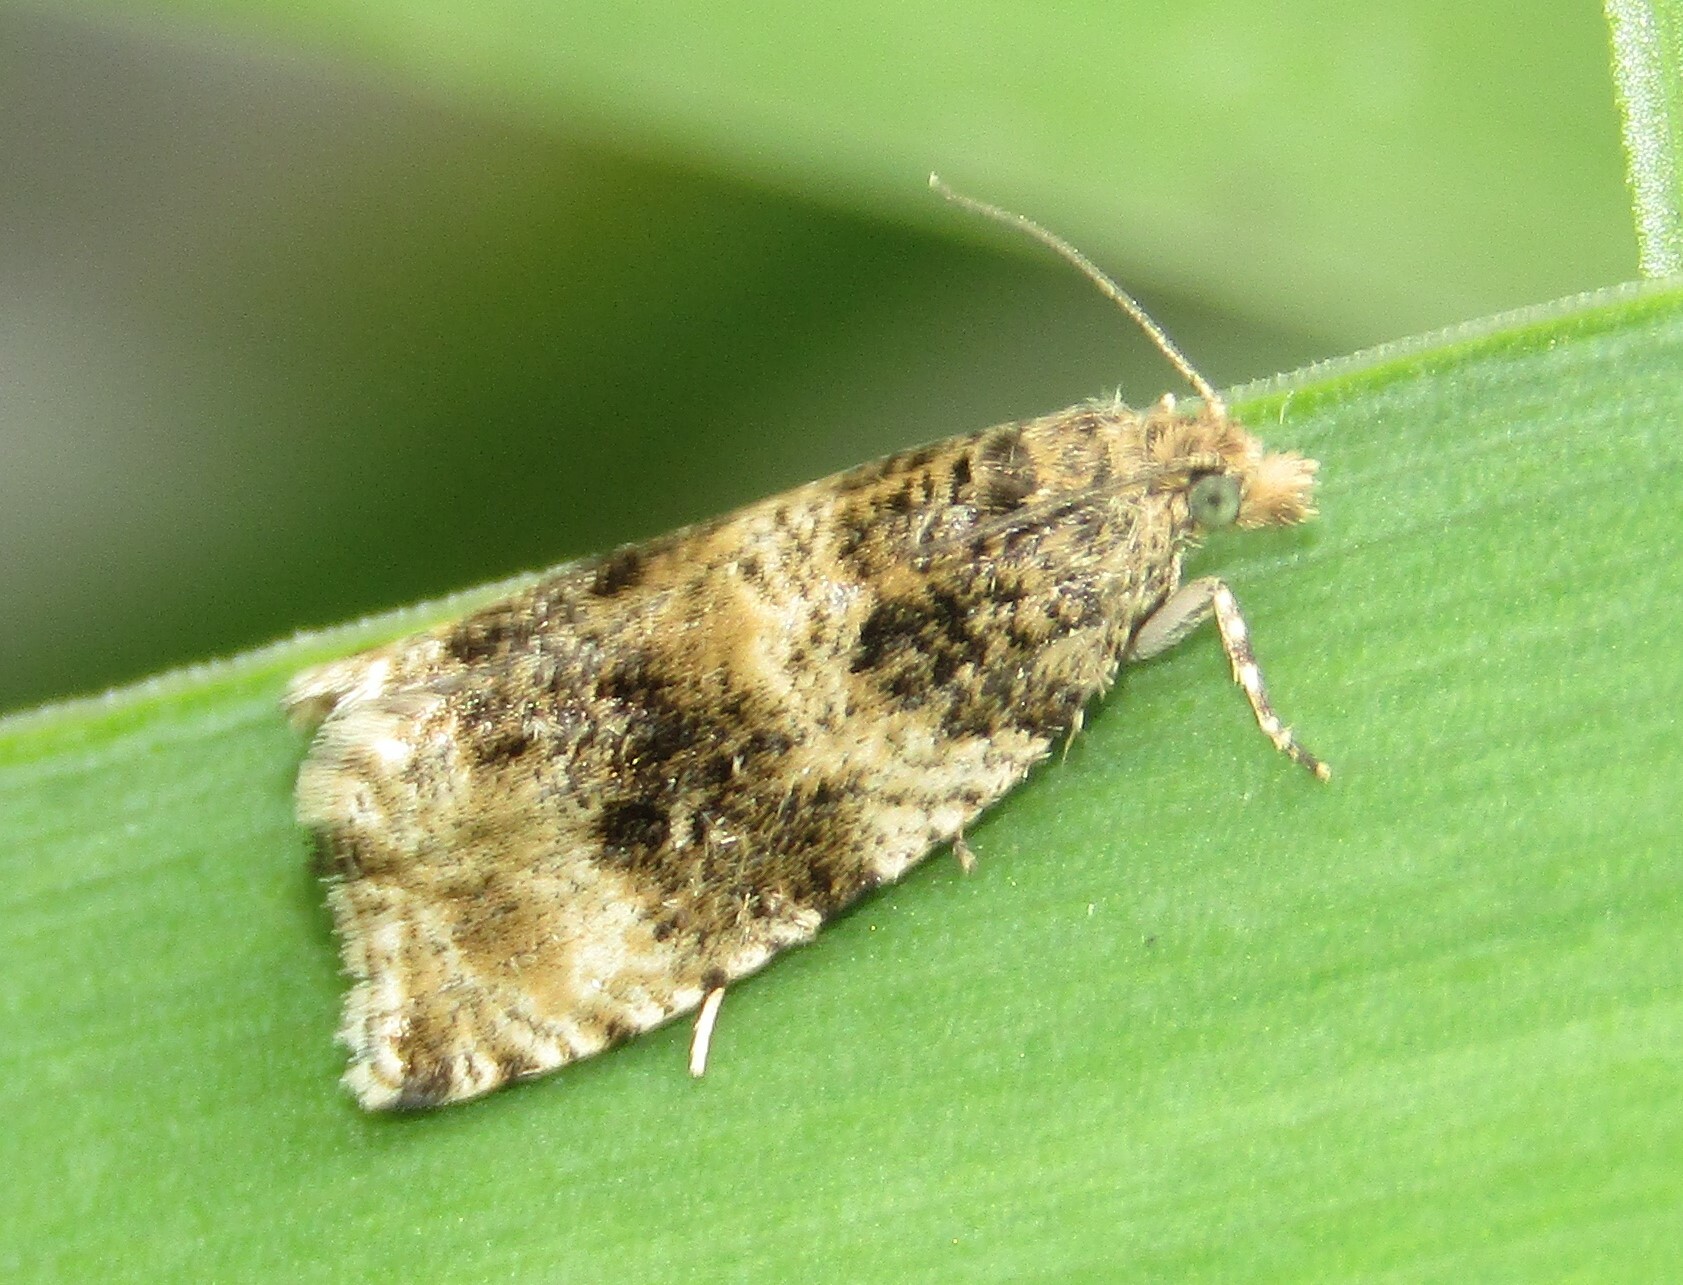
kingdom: Animalia
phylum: Arthropoda
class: Insecta
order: Lepidoptera
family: Tortricidae
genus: Syricoris
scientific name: Syricoris lacunana
